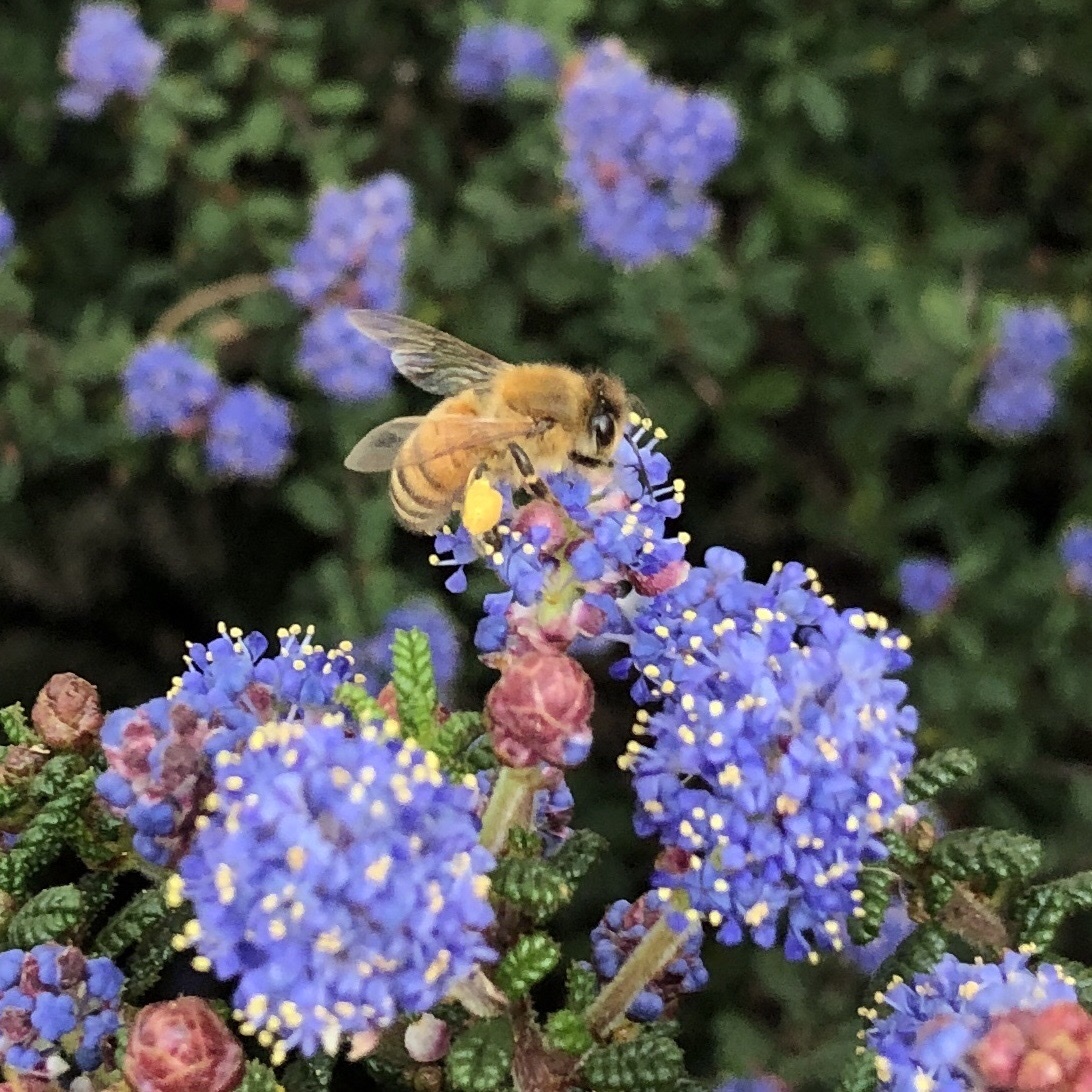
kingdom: Animalia
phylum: Arthropoda
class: Insecta
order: Hymenoptera
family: Apidae
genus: Apis
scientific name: Apis mellifera
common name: Honey bee
